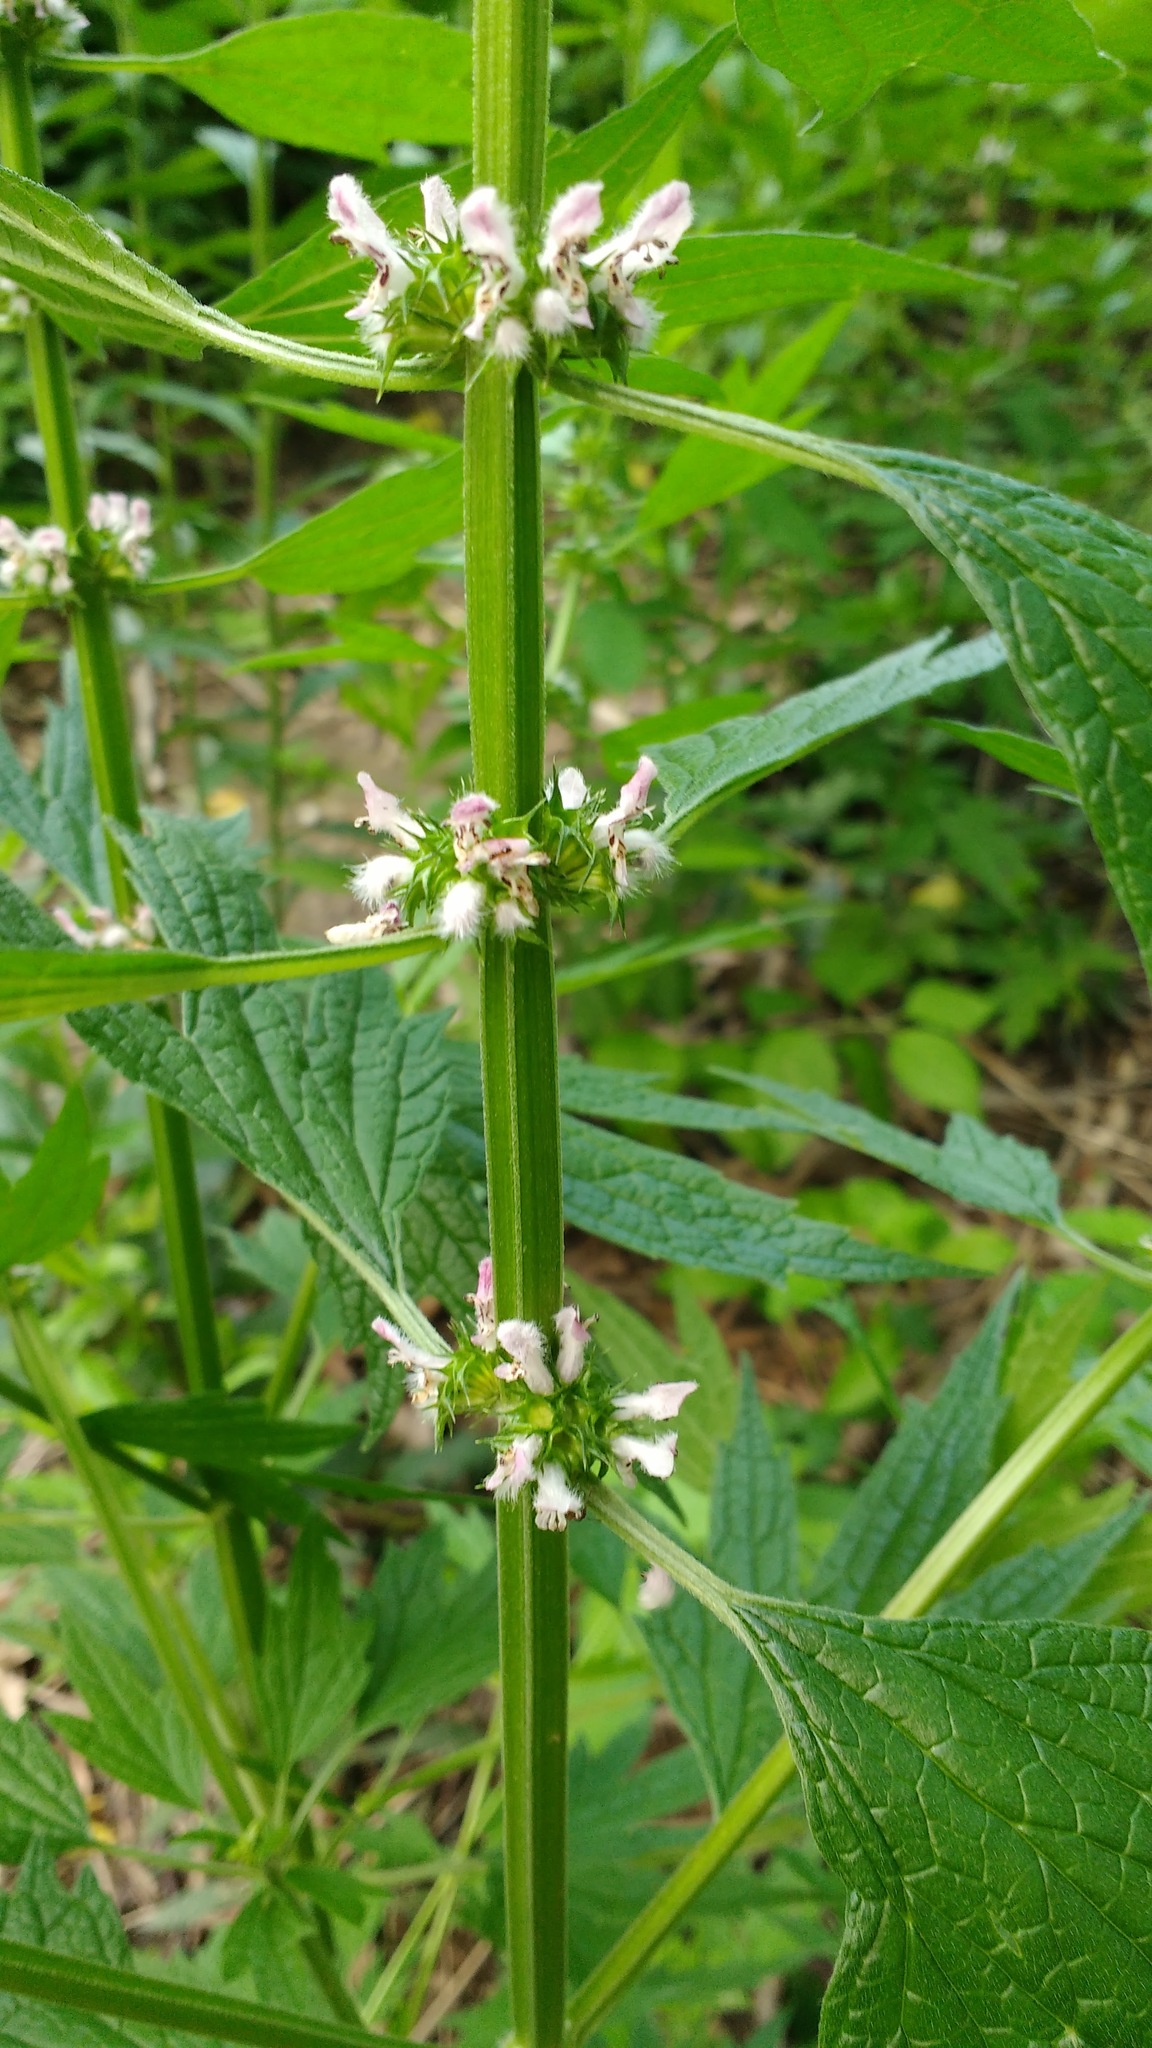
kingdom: Plantae
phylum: Tracheophyta
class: Magnoliopsida
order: Lamiales
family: Lamiaceae
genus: Leonurus
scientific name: Leonurus cardiaca
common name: Motherwort
